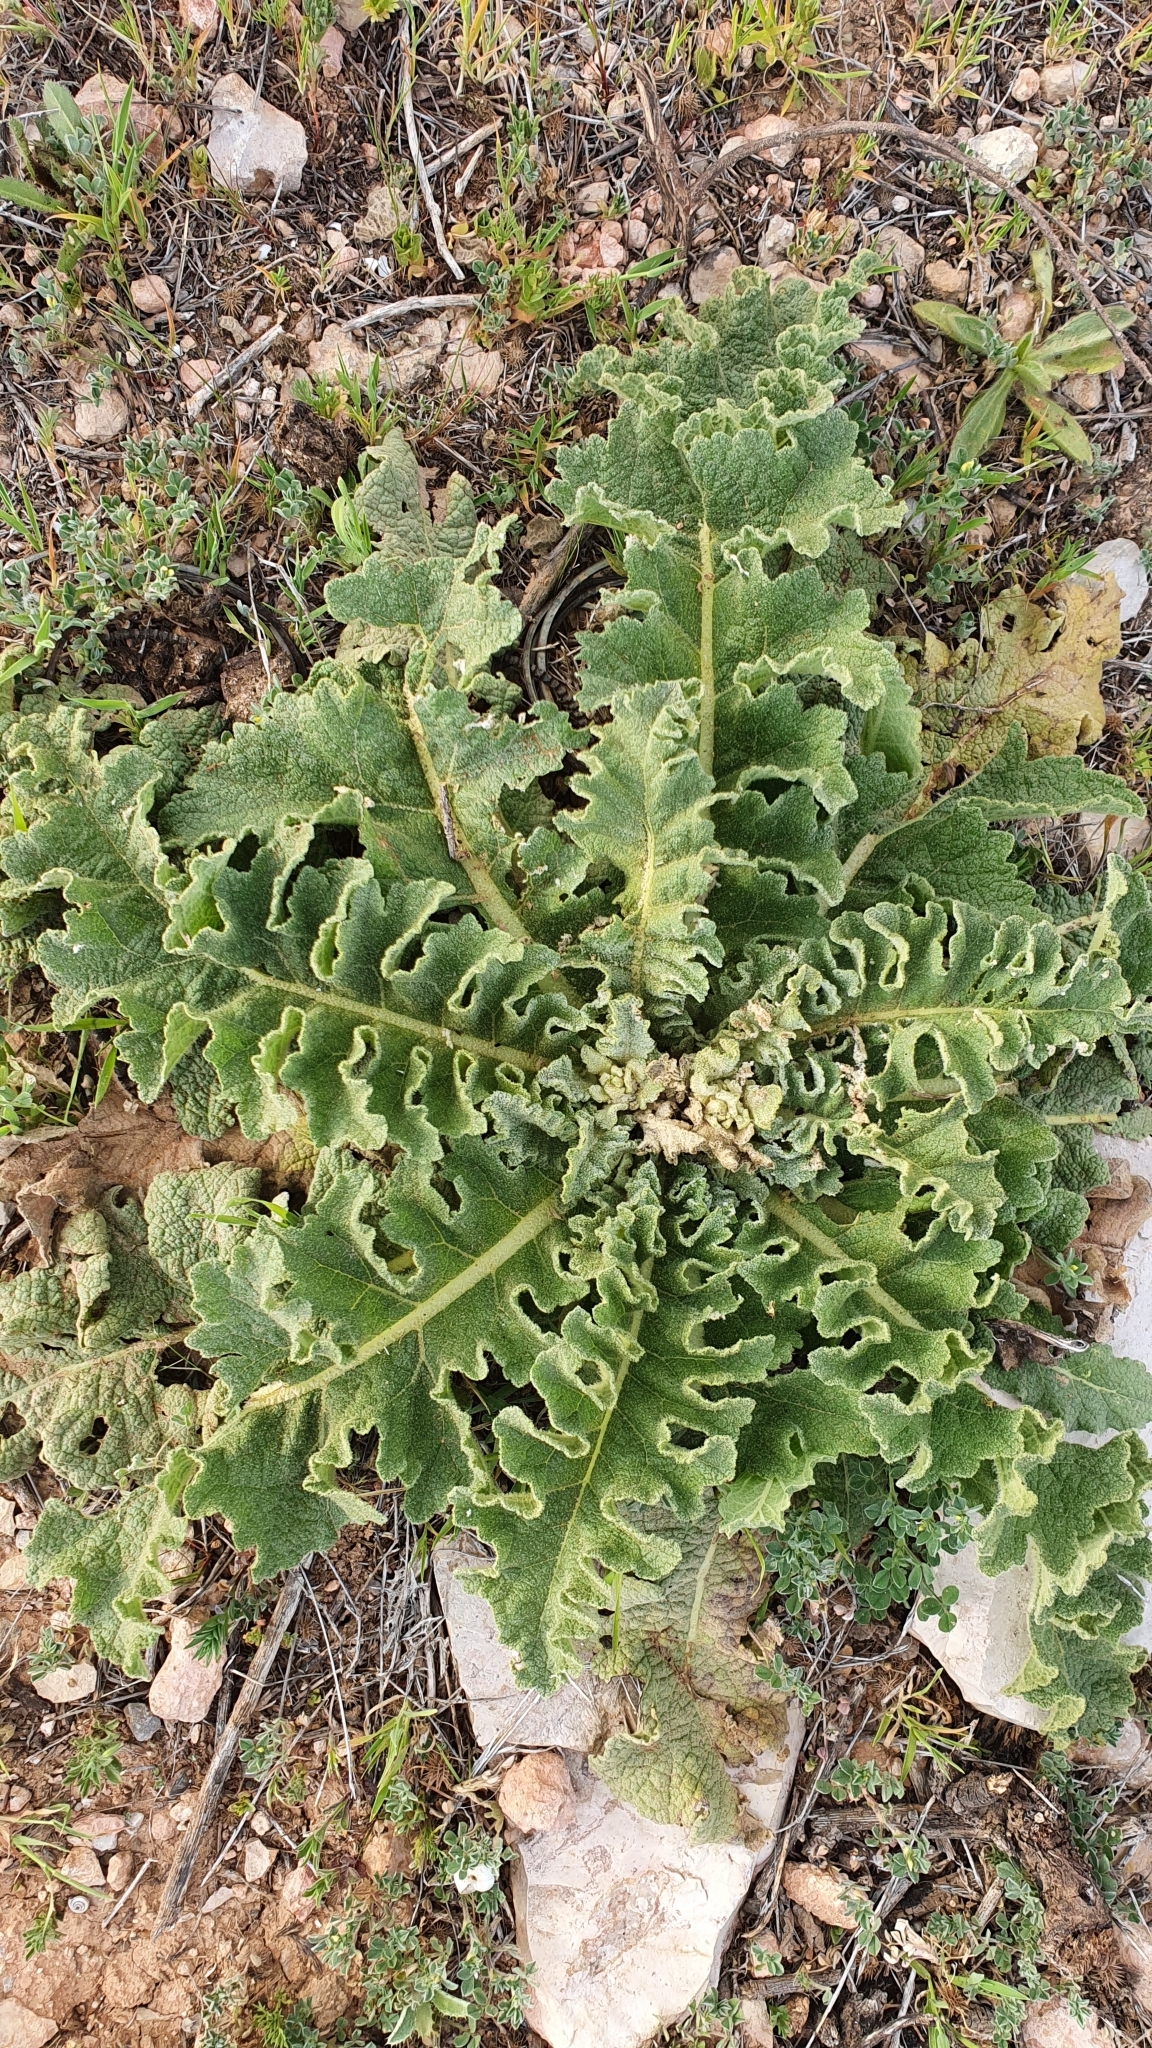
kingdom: Plantae
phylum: Tracheophyta
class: Magnoliopsida
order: Lamiales
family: Scrophulariaceae
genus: Verbascum
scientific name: Verbascum sinuatum
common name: Wavyleaf mullein
